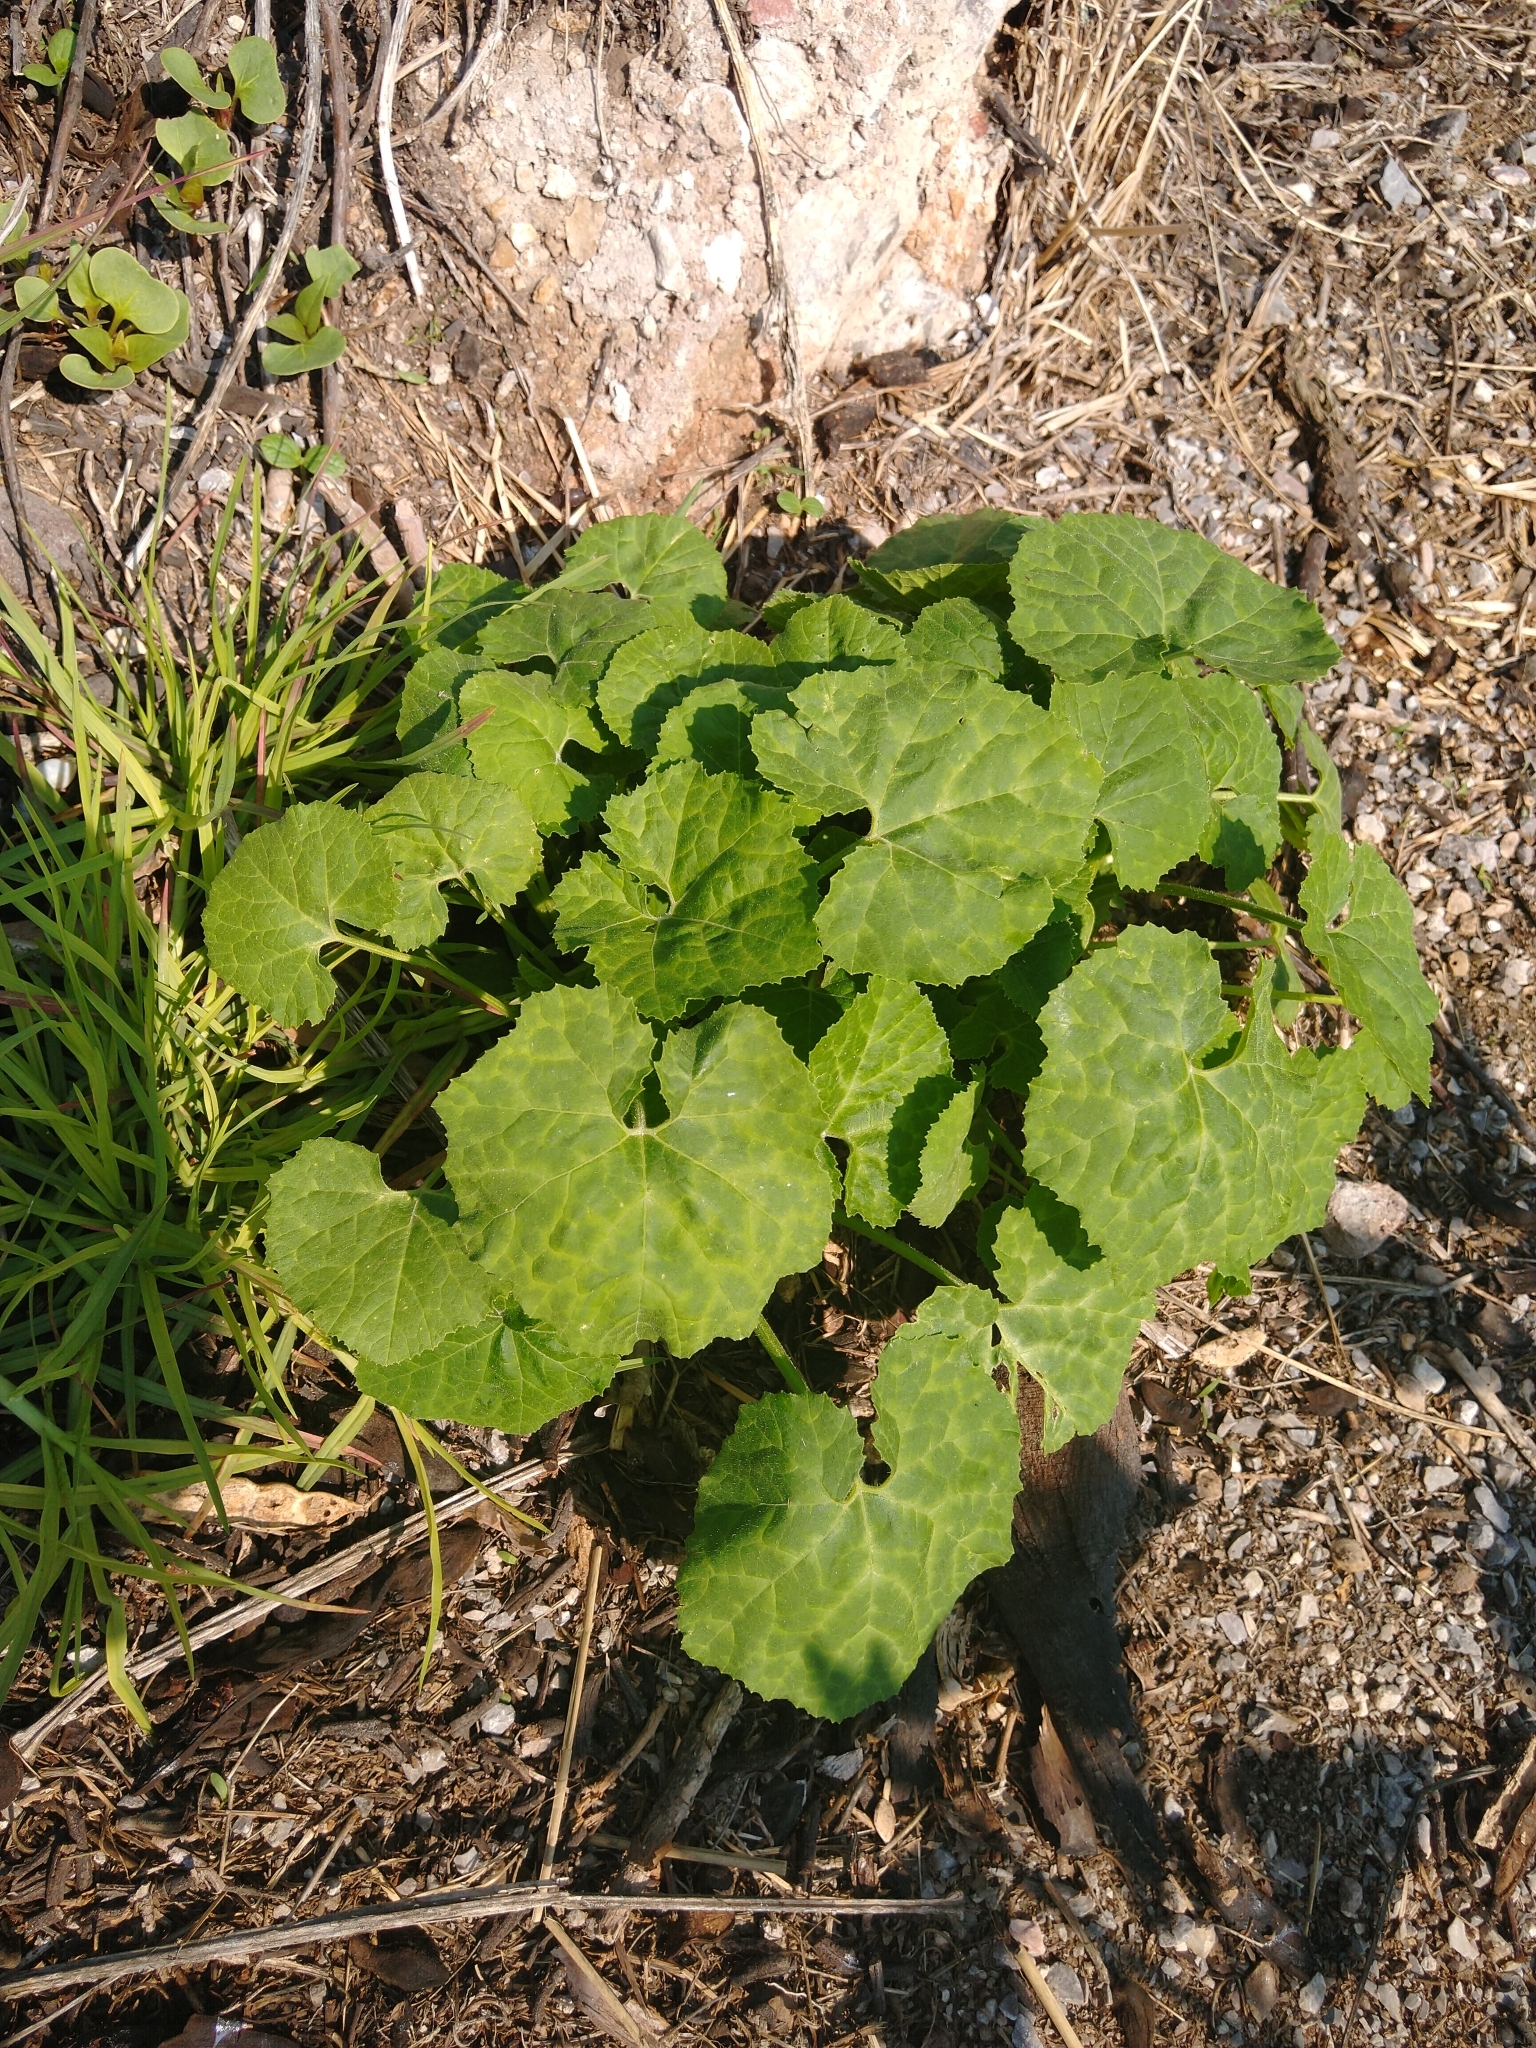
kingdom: Plantae
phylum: Tracheophyta
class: Magnoliopsida
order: Cucurbitales
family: Cucurbitaceae
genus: Cucurbita
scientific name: Cucurbita ficifolia
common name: Figleaf gourd
